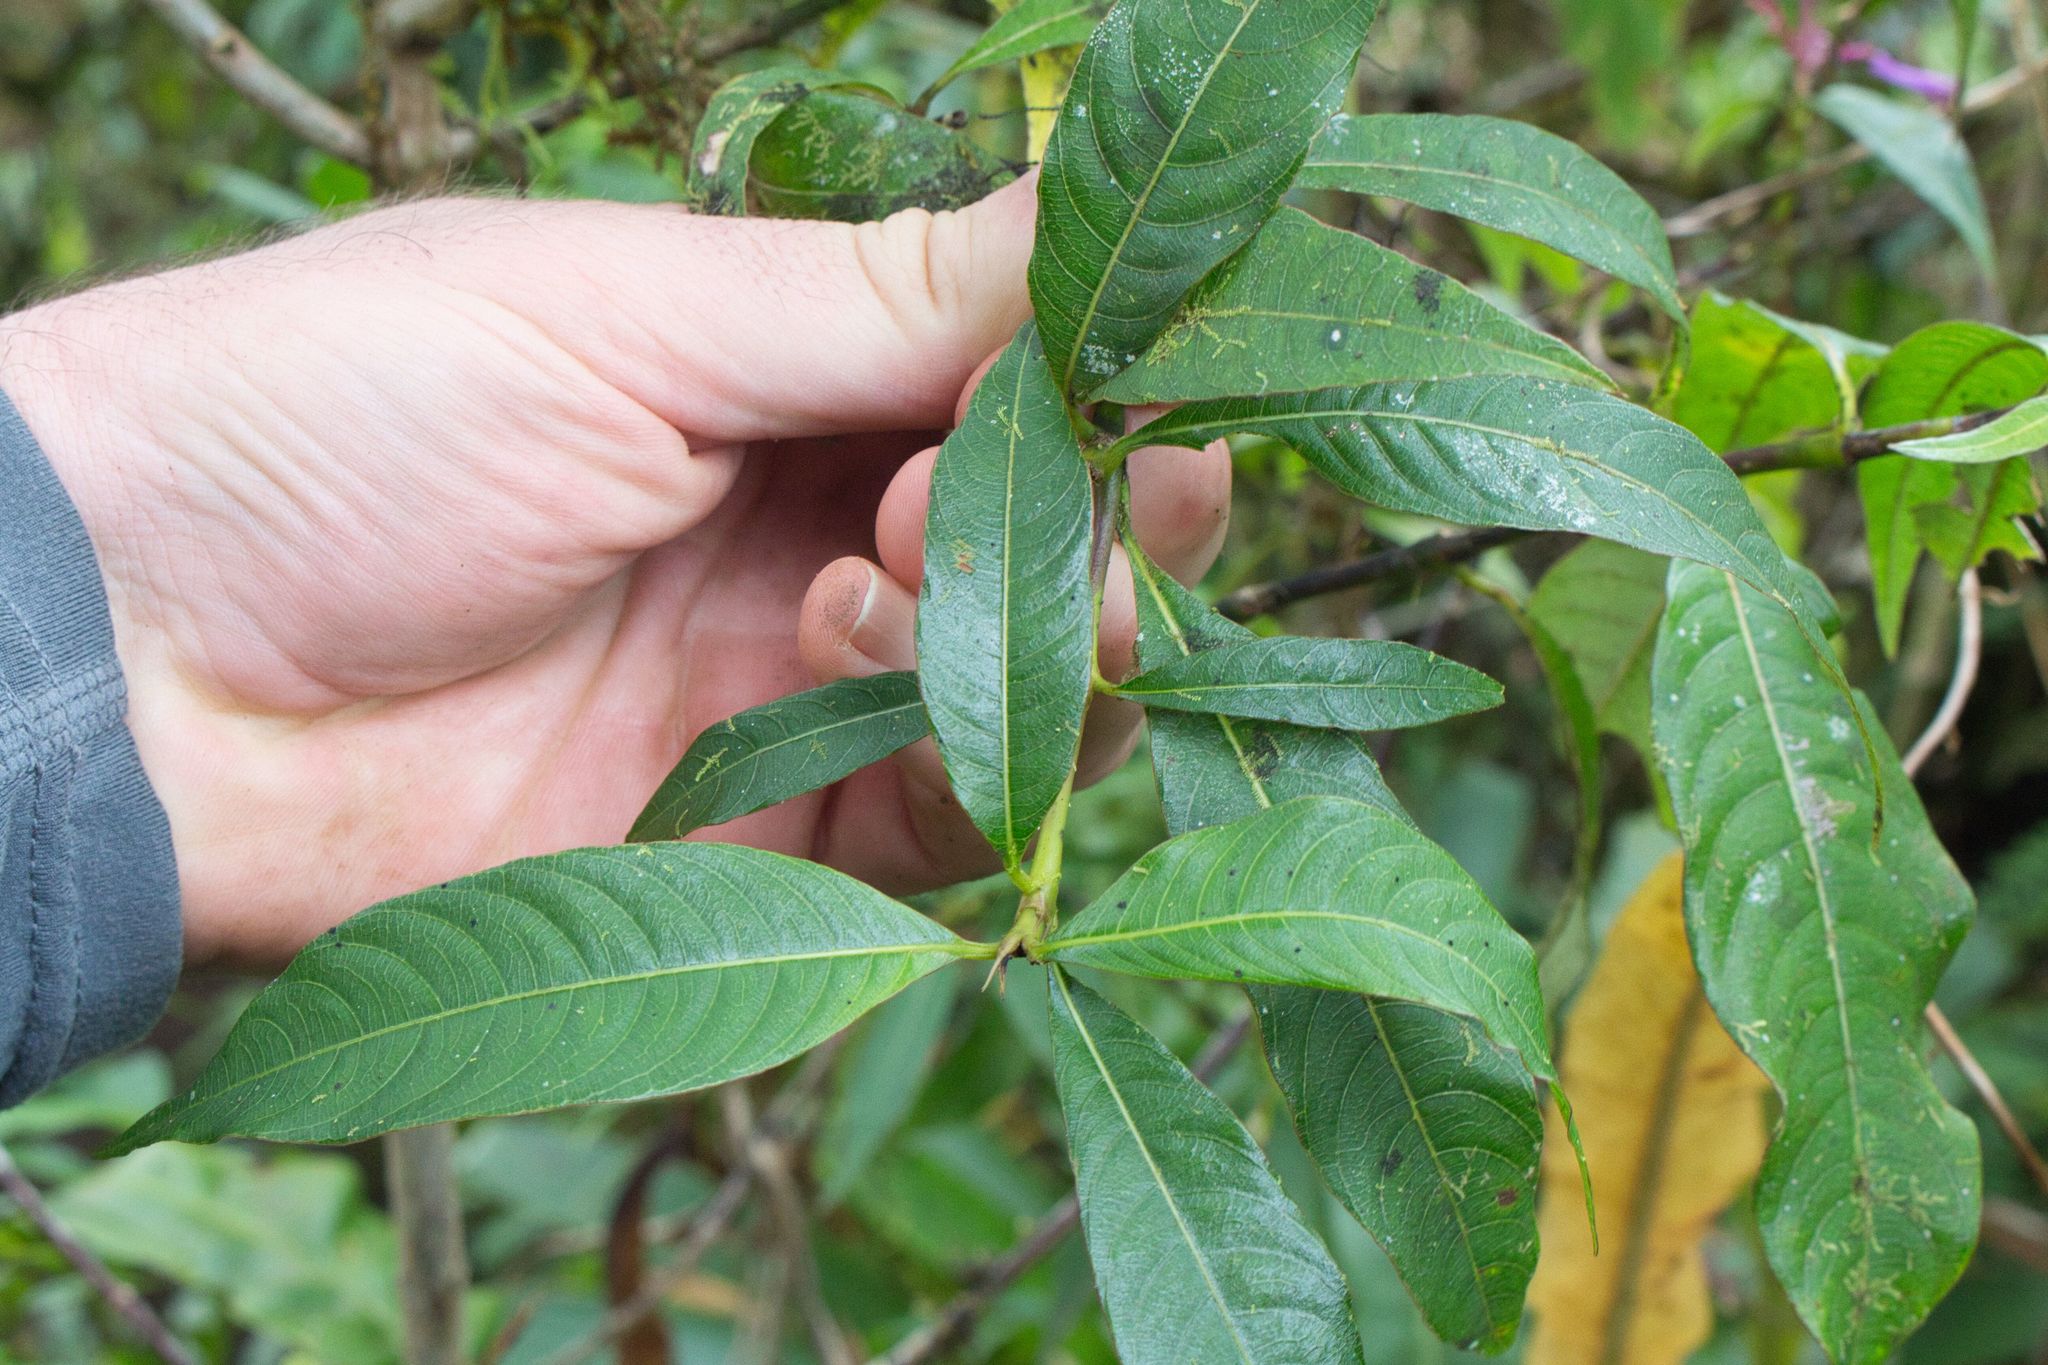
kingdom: Plantae
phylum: Tracheophyta
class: Magnoliopsida
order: Gentianales
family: Rubiaceae
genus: Palicourea
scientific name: Palicourea angustifolia
